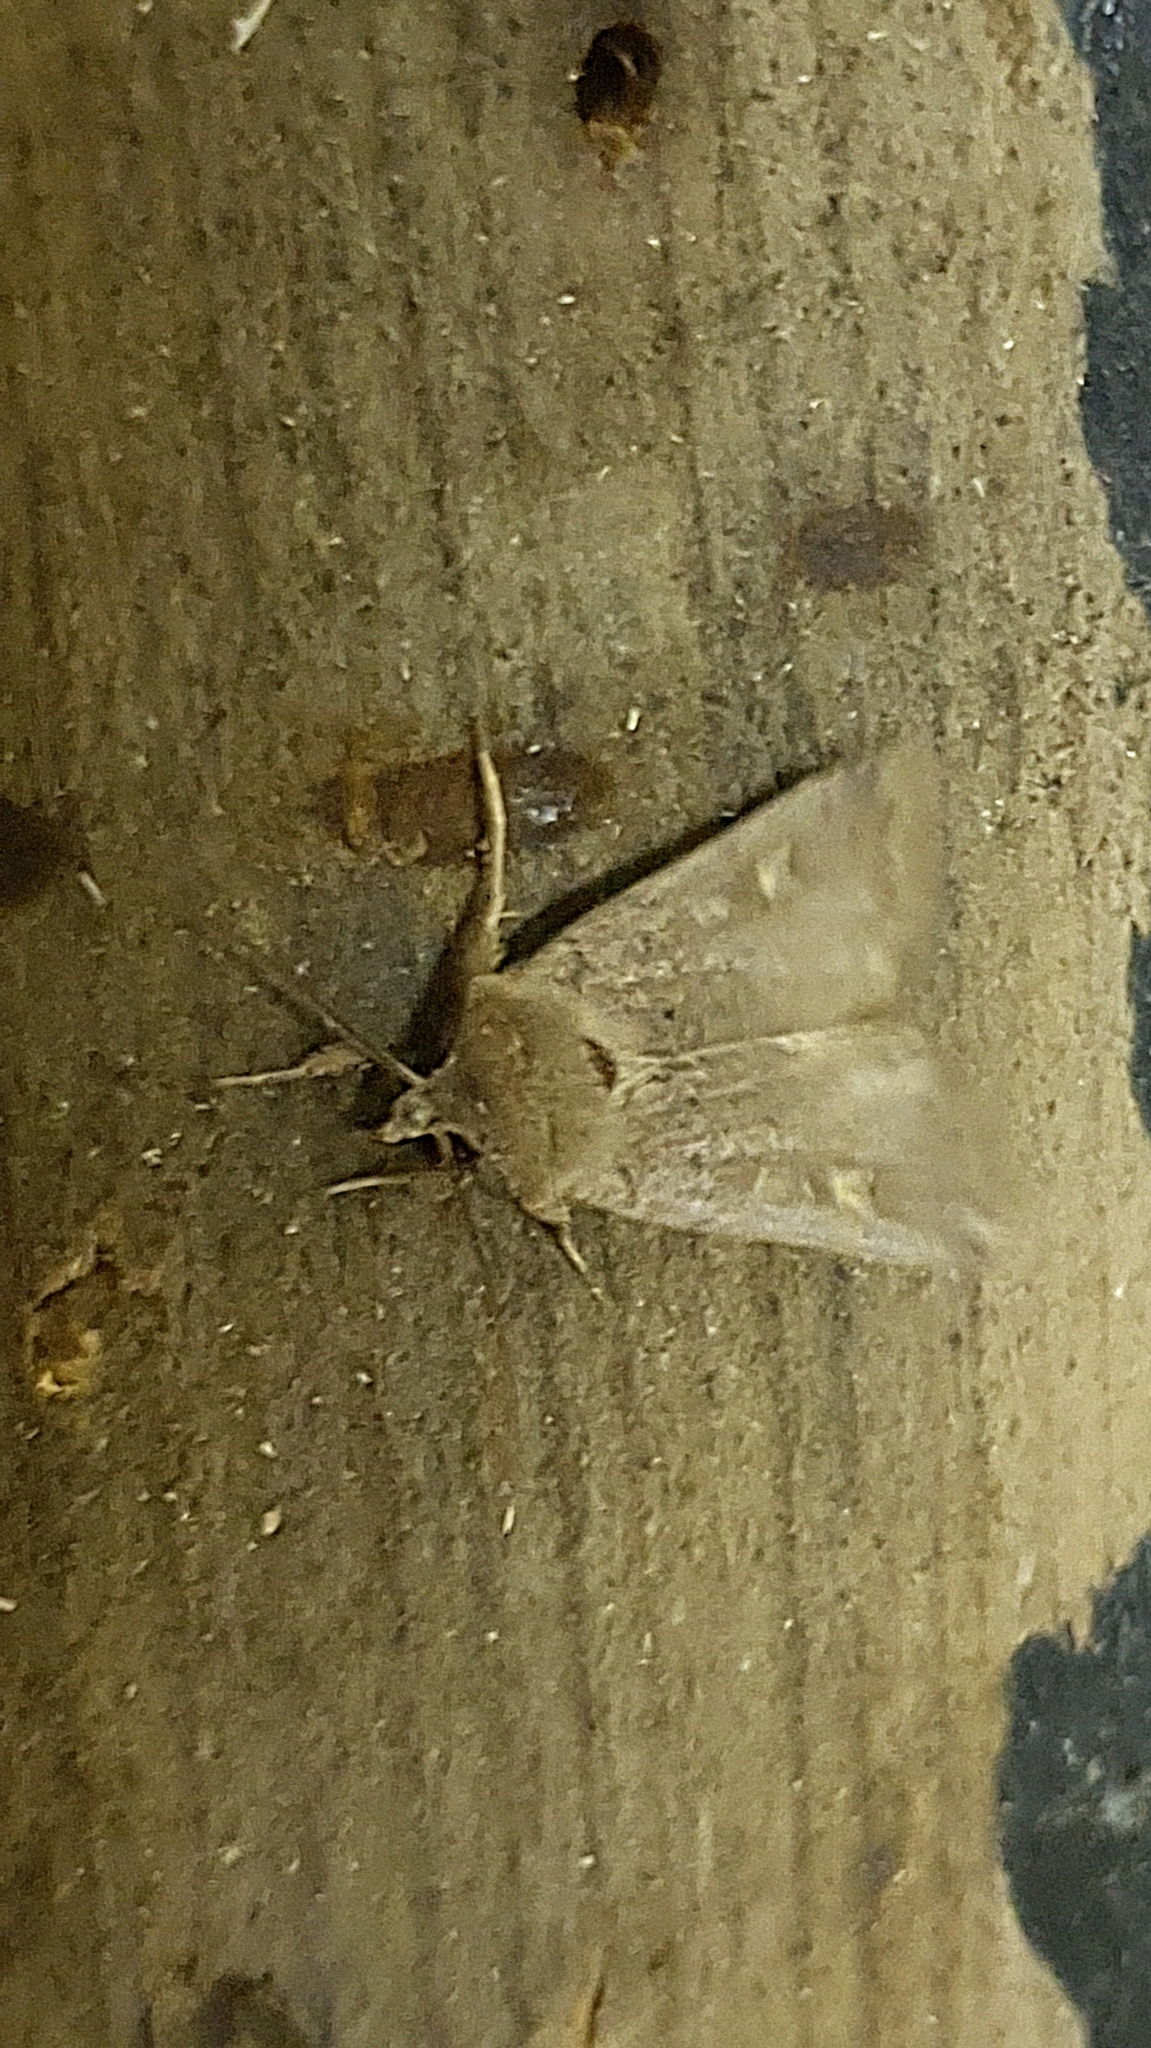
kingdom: Animalia
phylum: Arthropoda
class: Insecta
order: Lepidoptera
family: Noctuidae
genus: Xestia
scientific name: Xestia xanthographa
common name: Square-spot rustic
